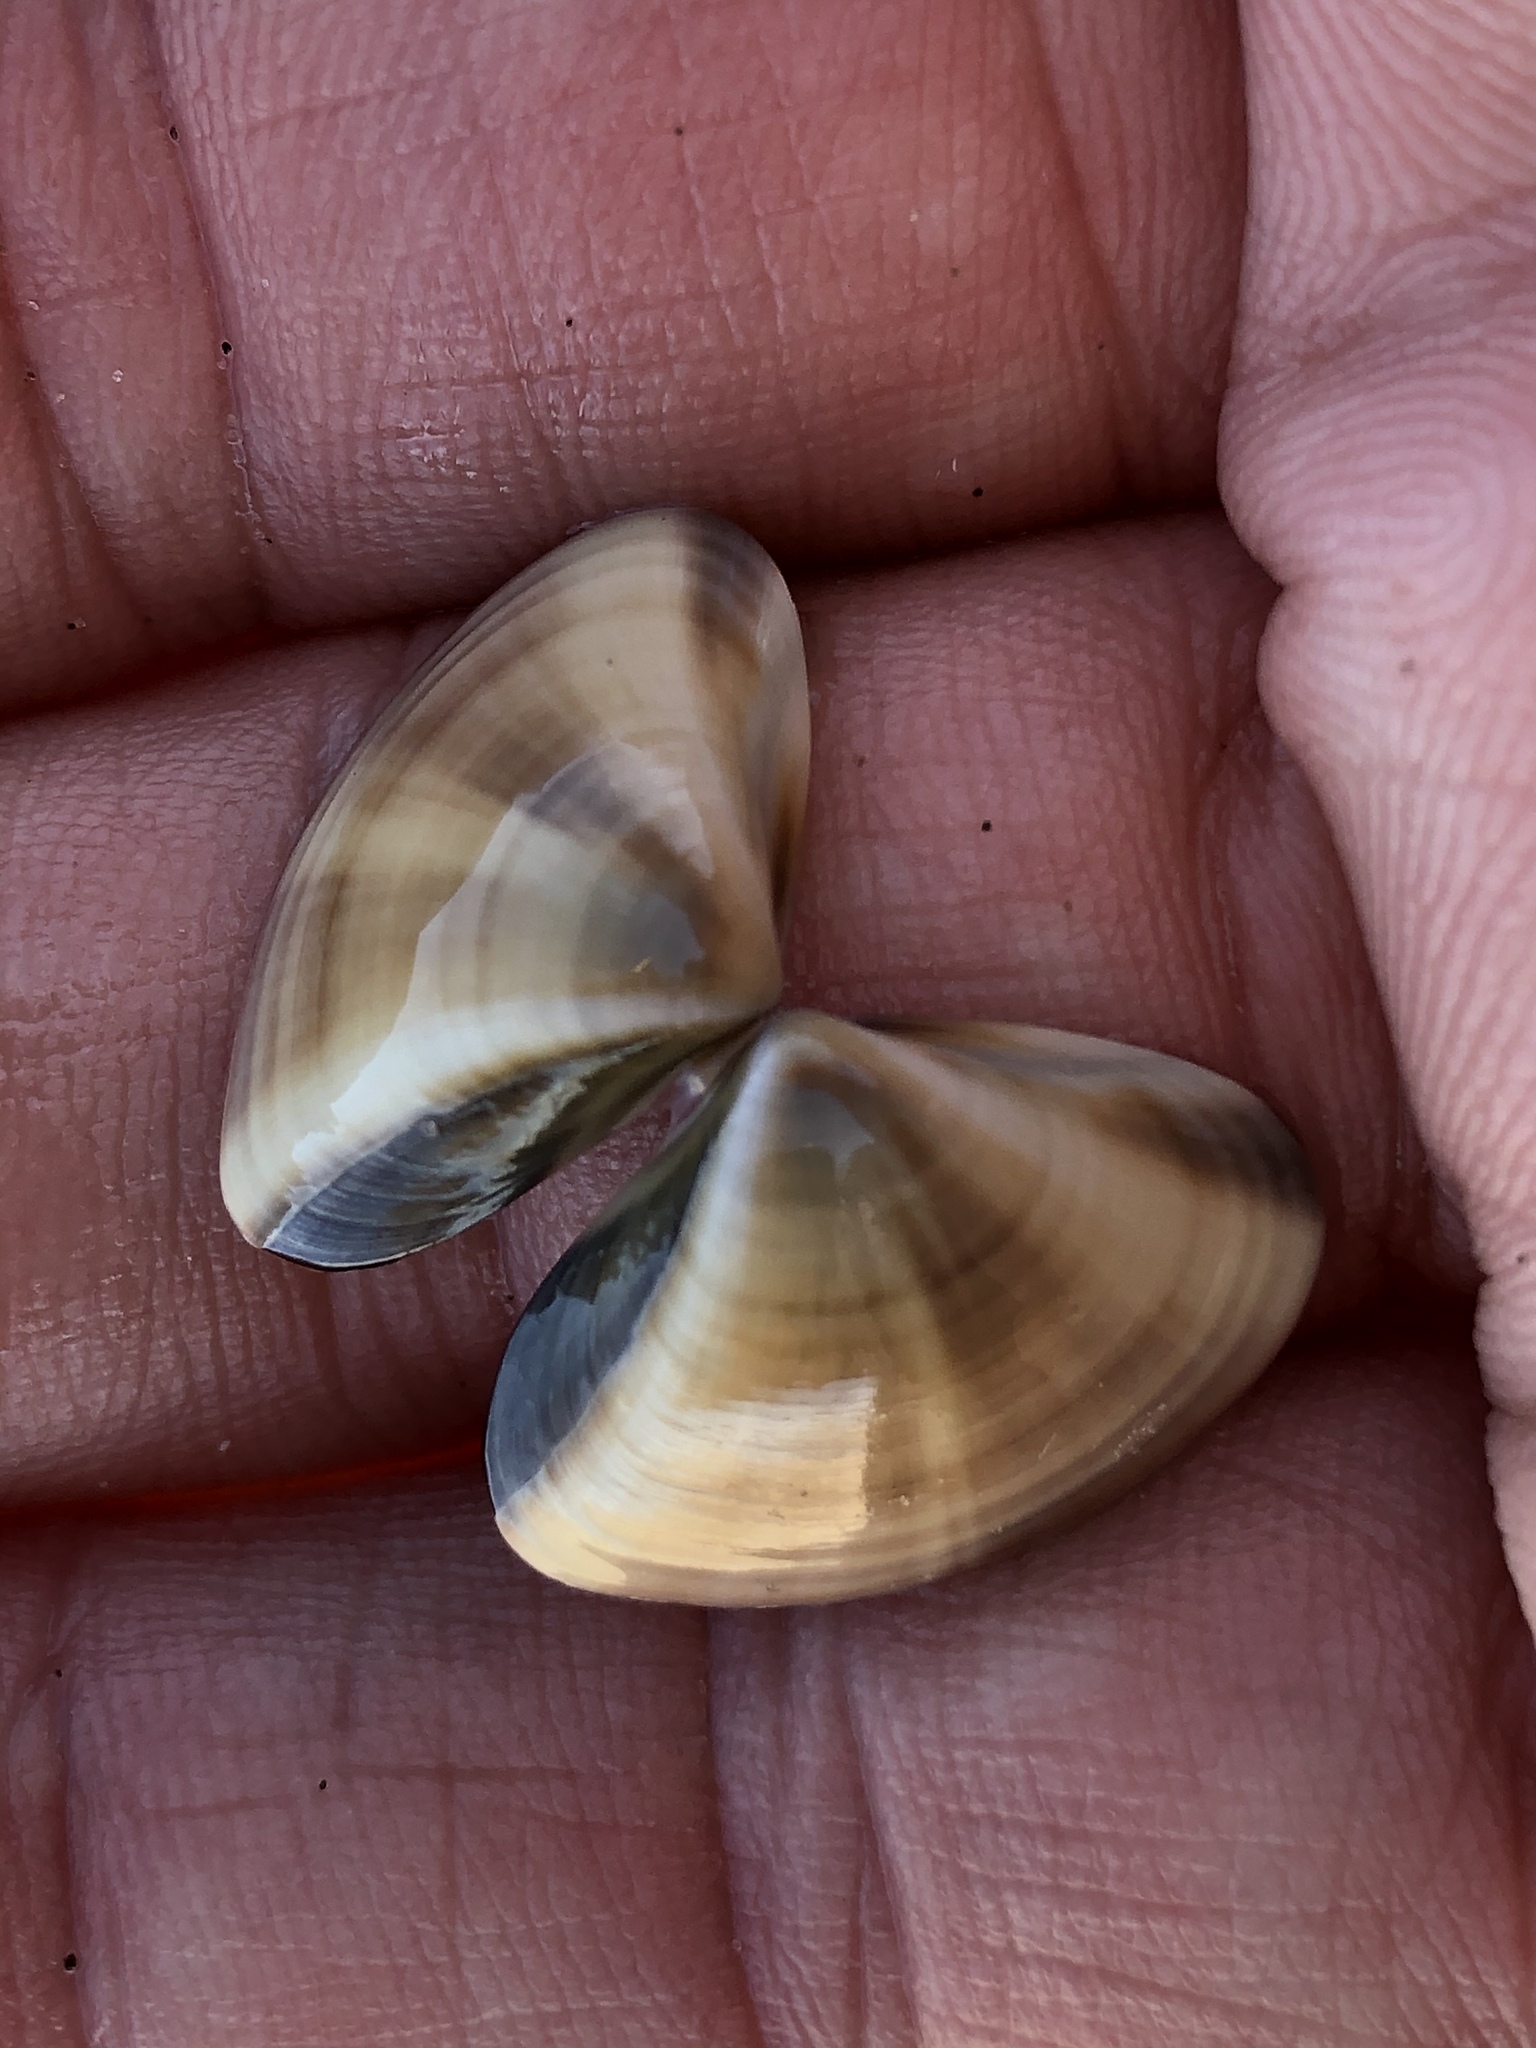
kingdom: Animalia
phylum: Mollusca
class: Bivalvia
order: Venerida
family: Veneridae
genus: Tivela
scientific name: Tivela stultorum
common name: Pismo clam
